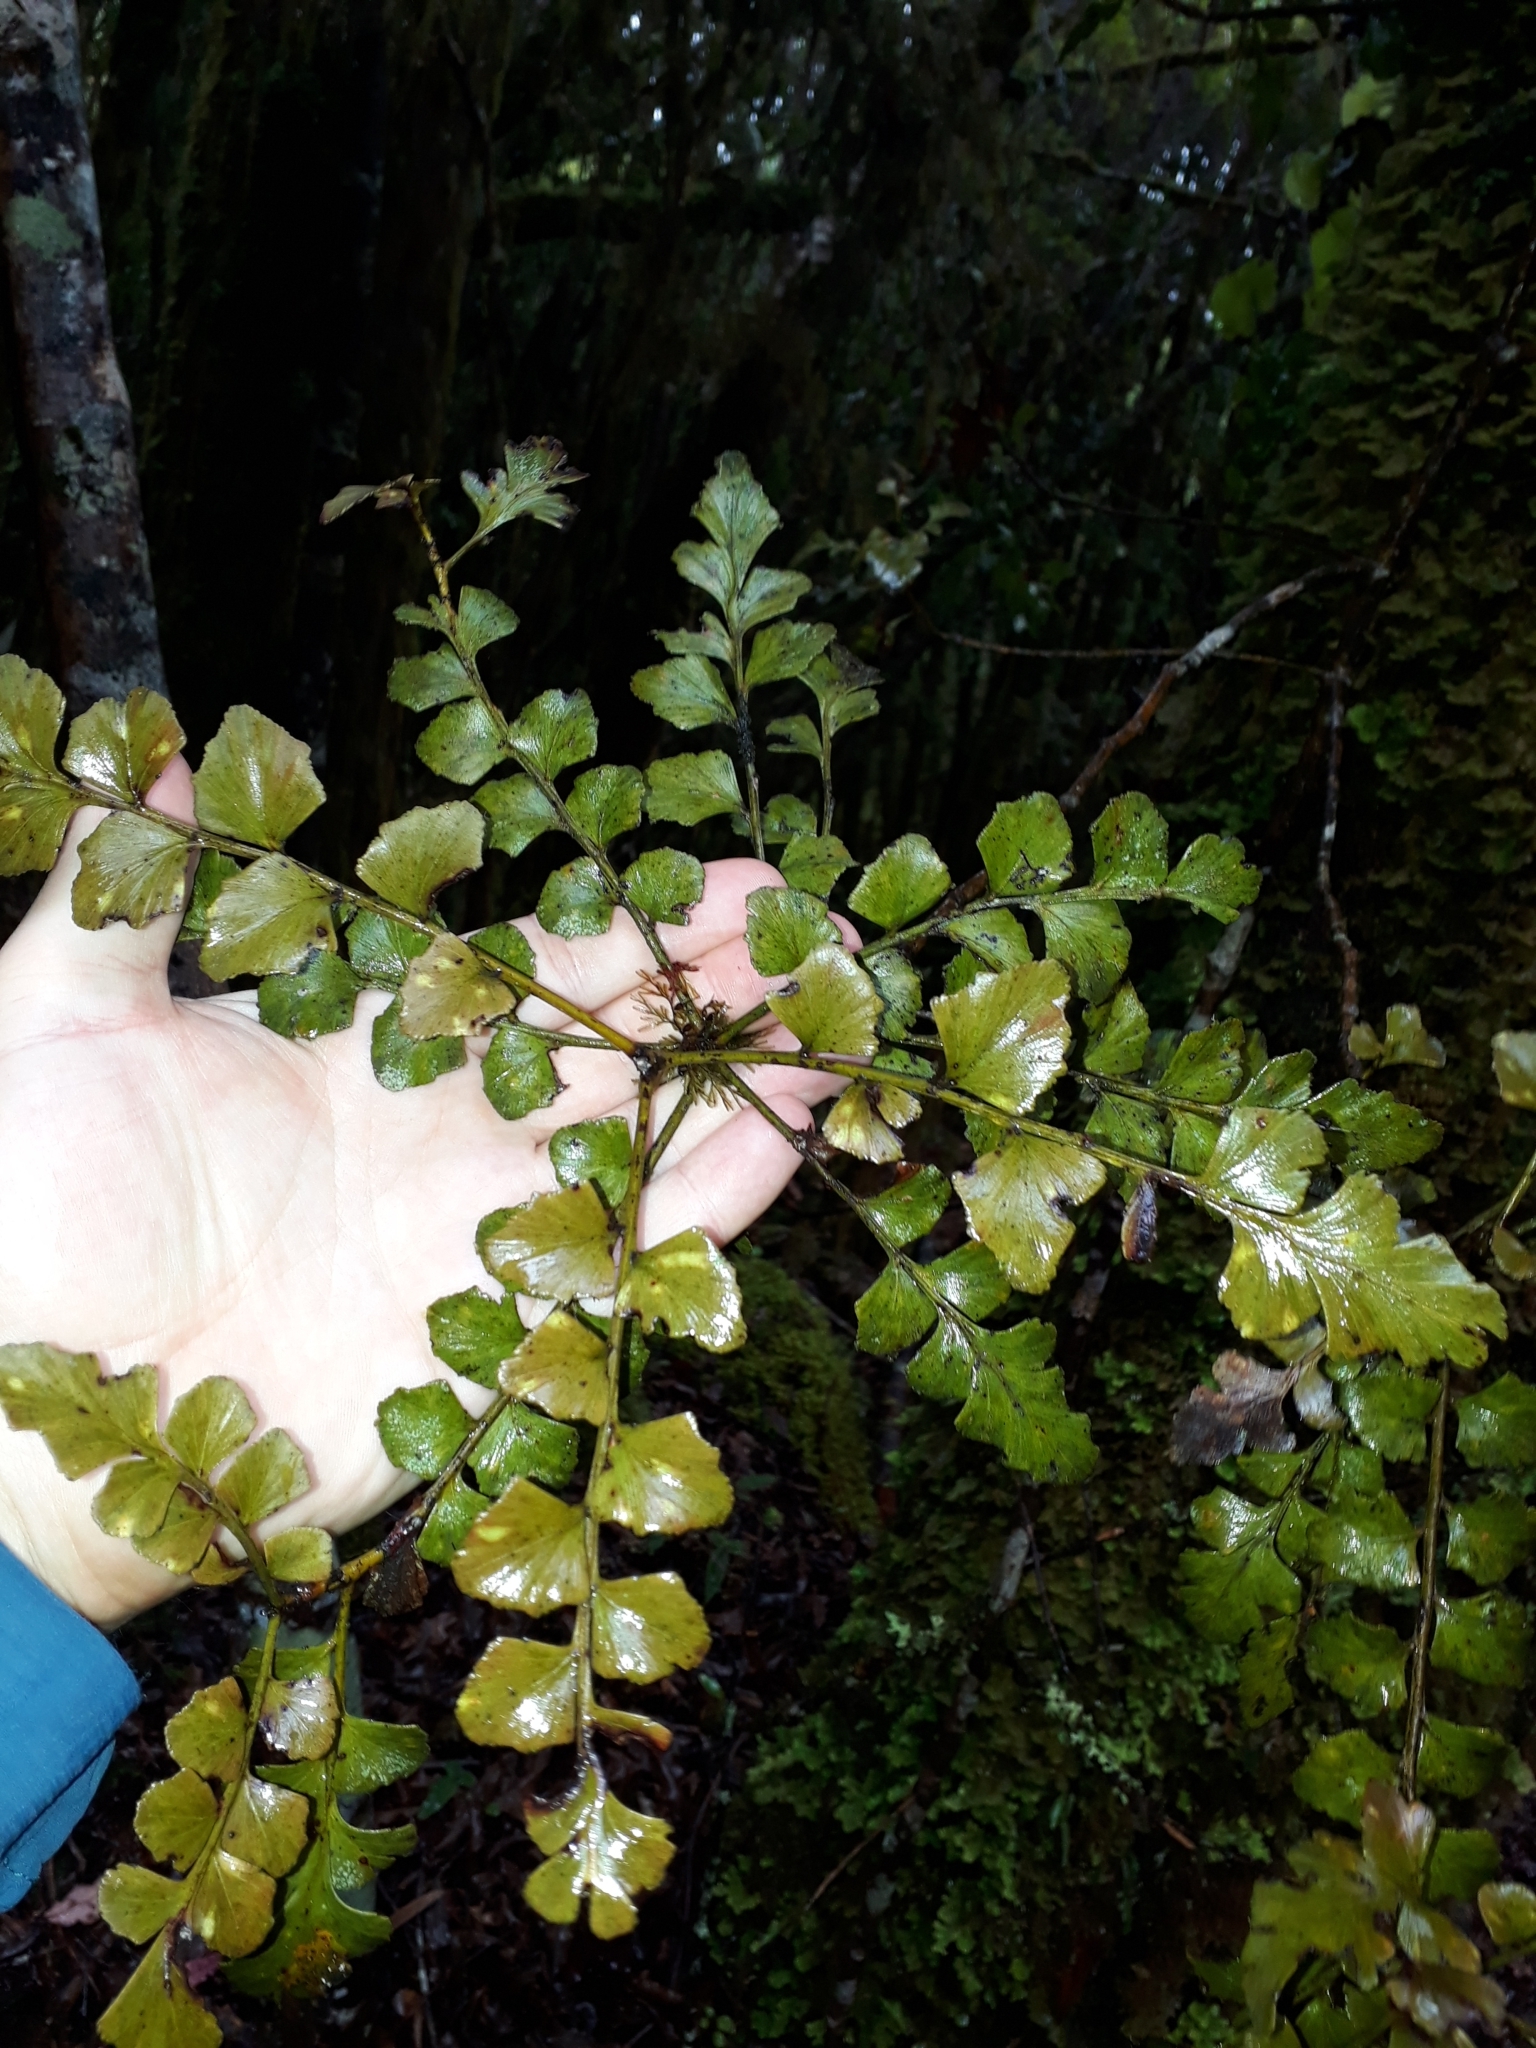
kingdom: Plantae
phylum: Tracheophyta
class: Pinopsida
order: Pinales
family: Phyllocladaceae
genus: Phyllocladus
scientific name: Phyllocladus toatoa
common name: Celery-top pine
